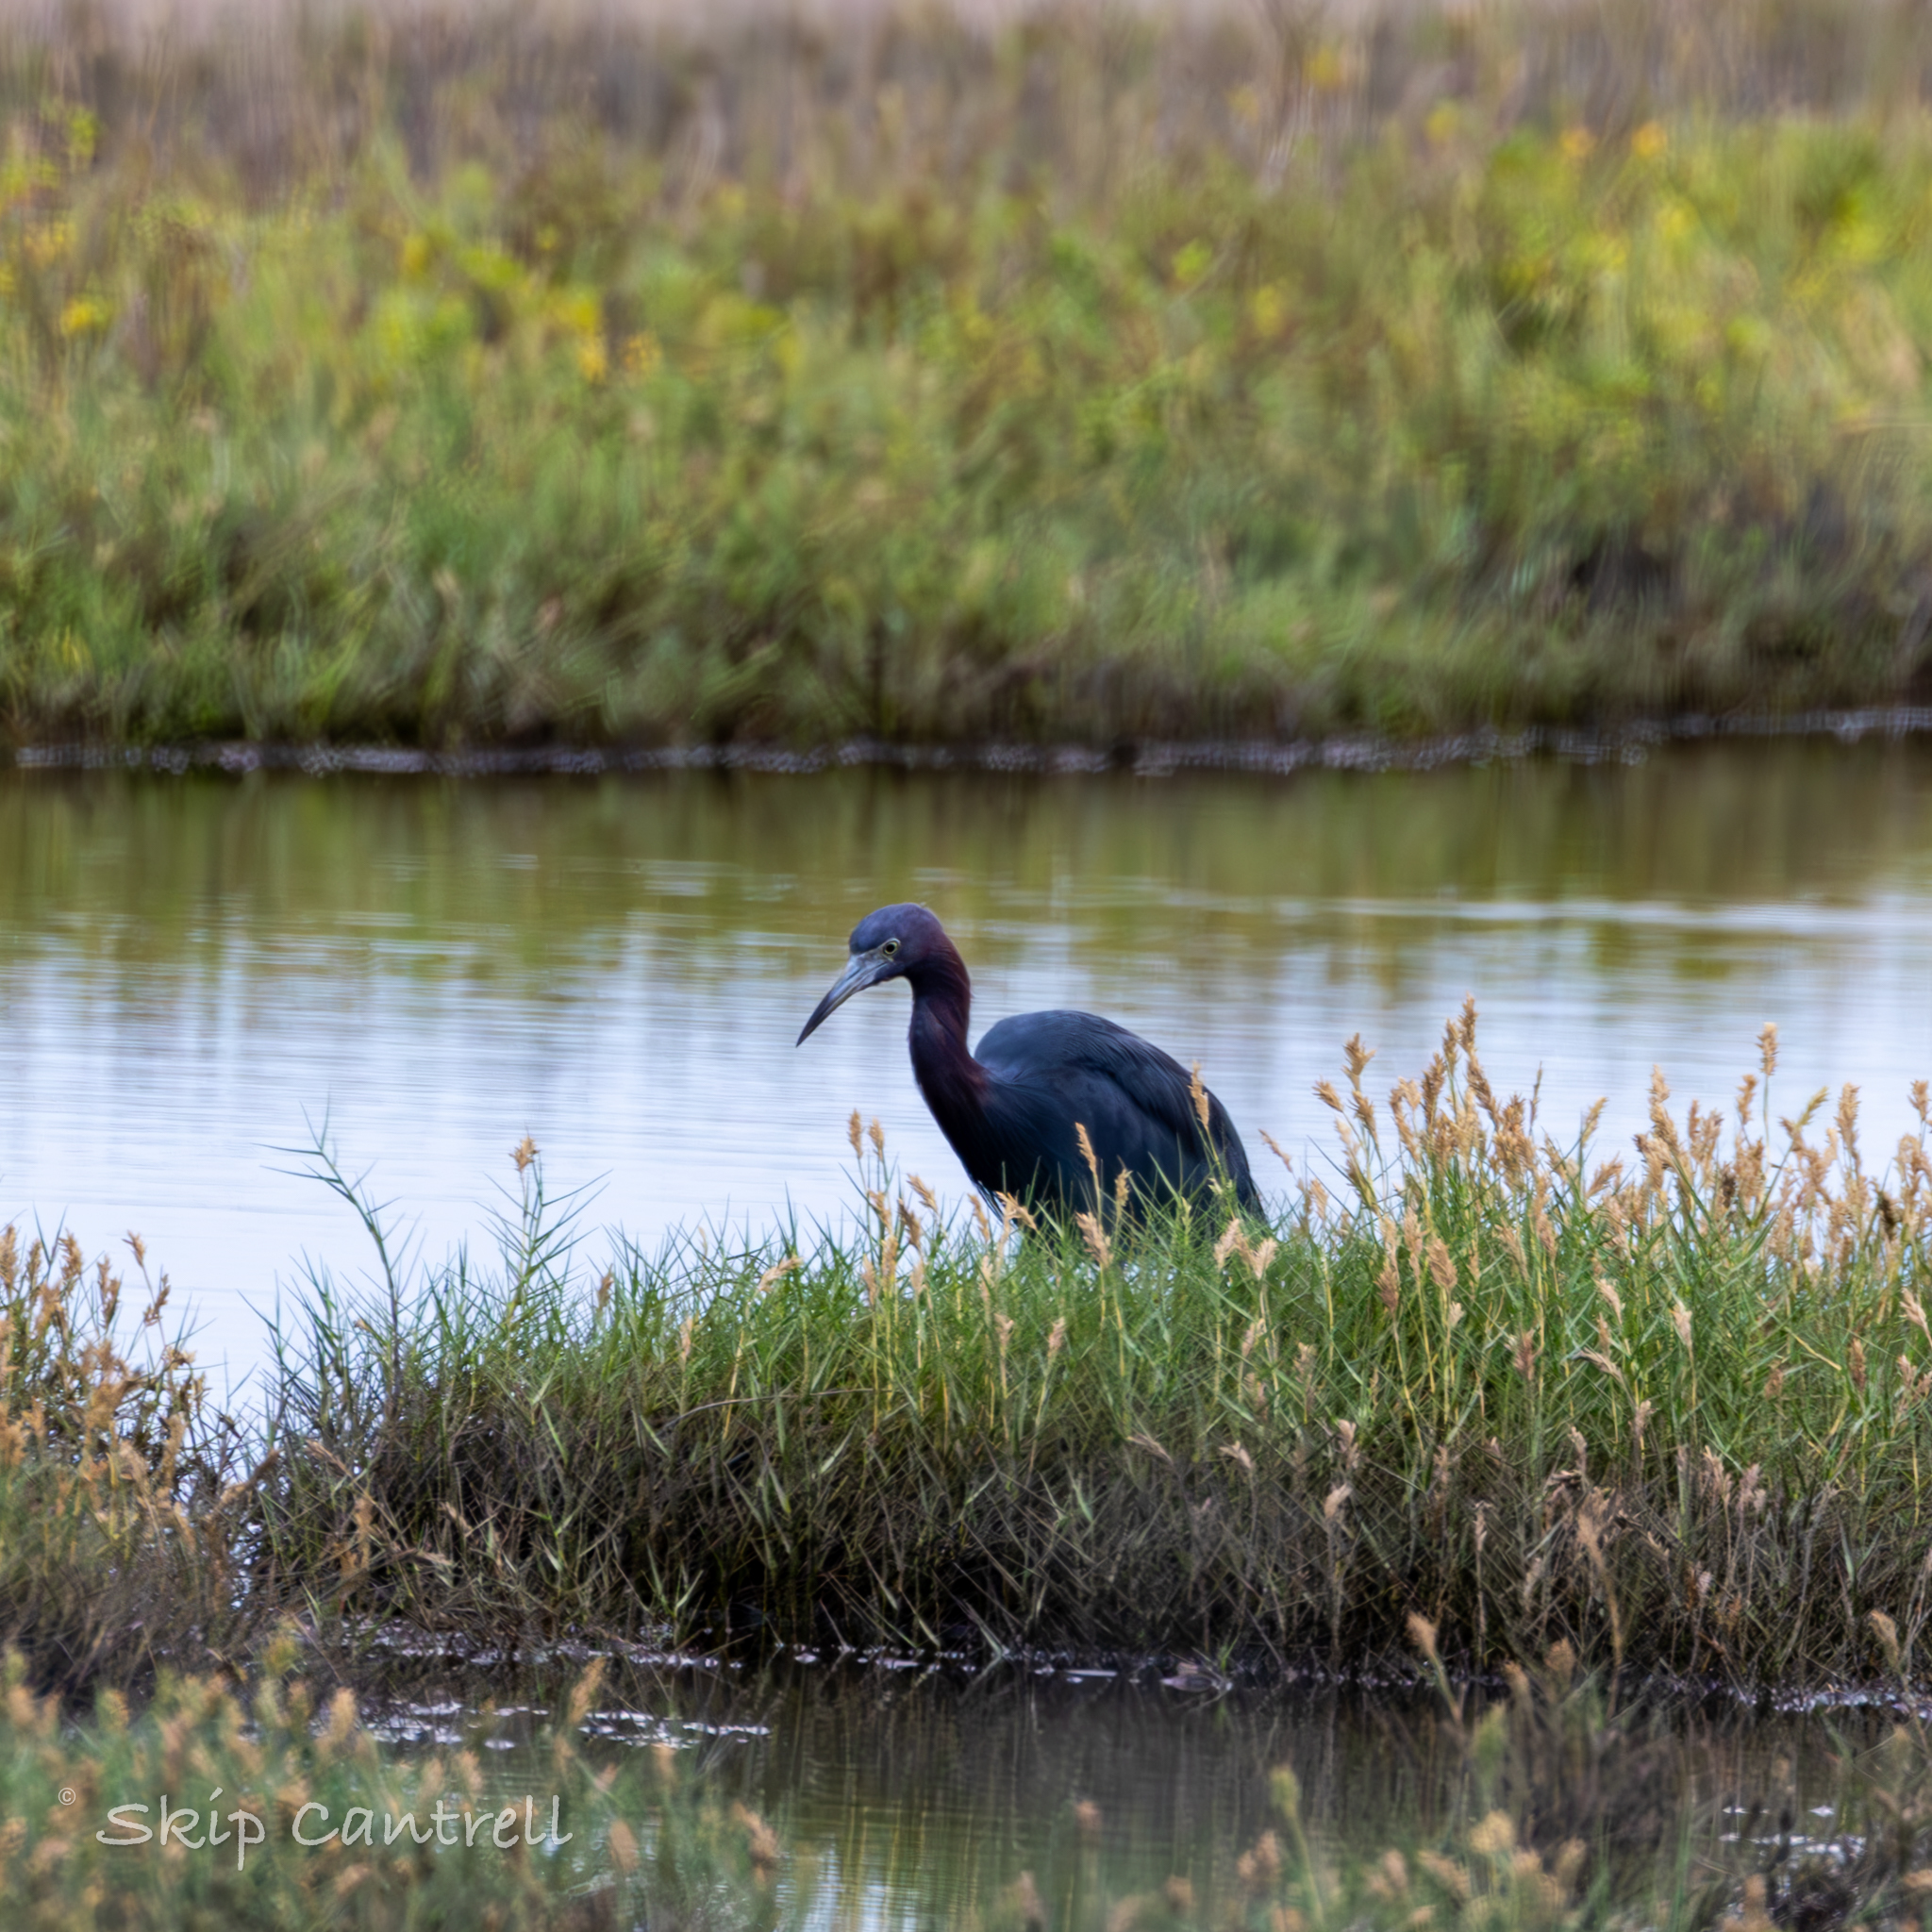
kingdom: Animalia
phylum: Chordata
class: Aves
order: Pelecaniformes
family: Ardeidae
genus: Egretta
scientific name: Egretta caerulea
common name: Little blue heron
